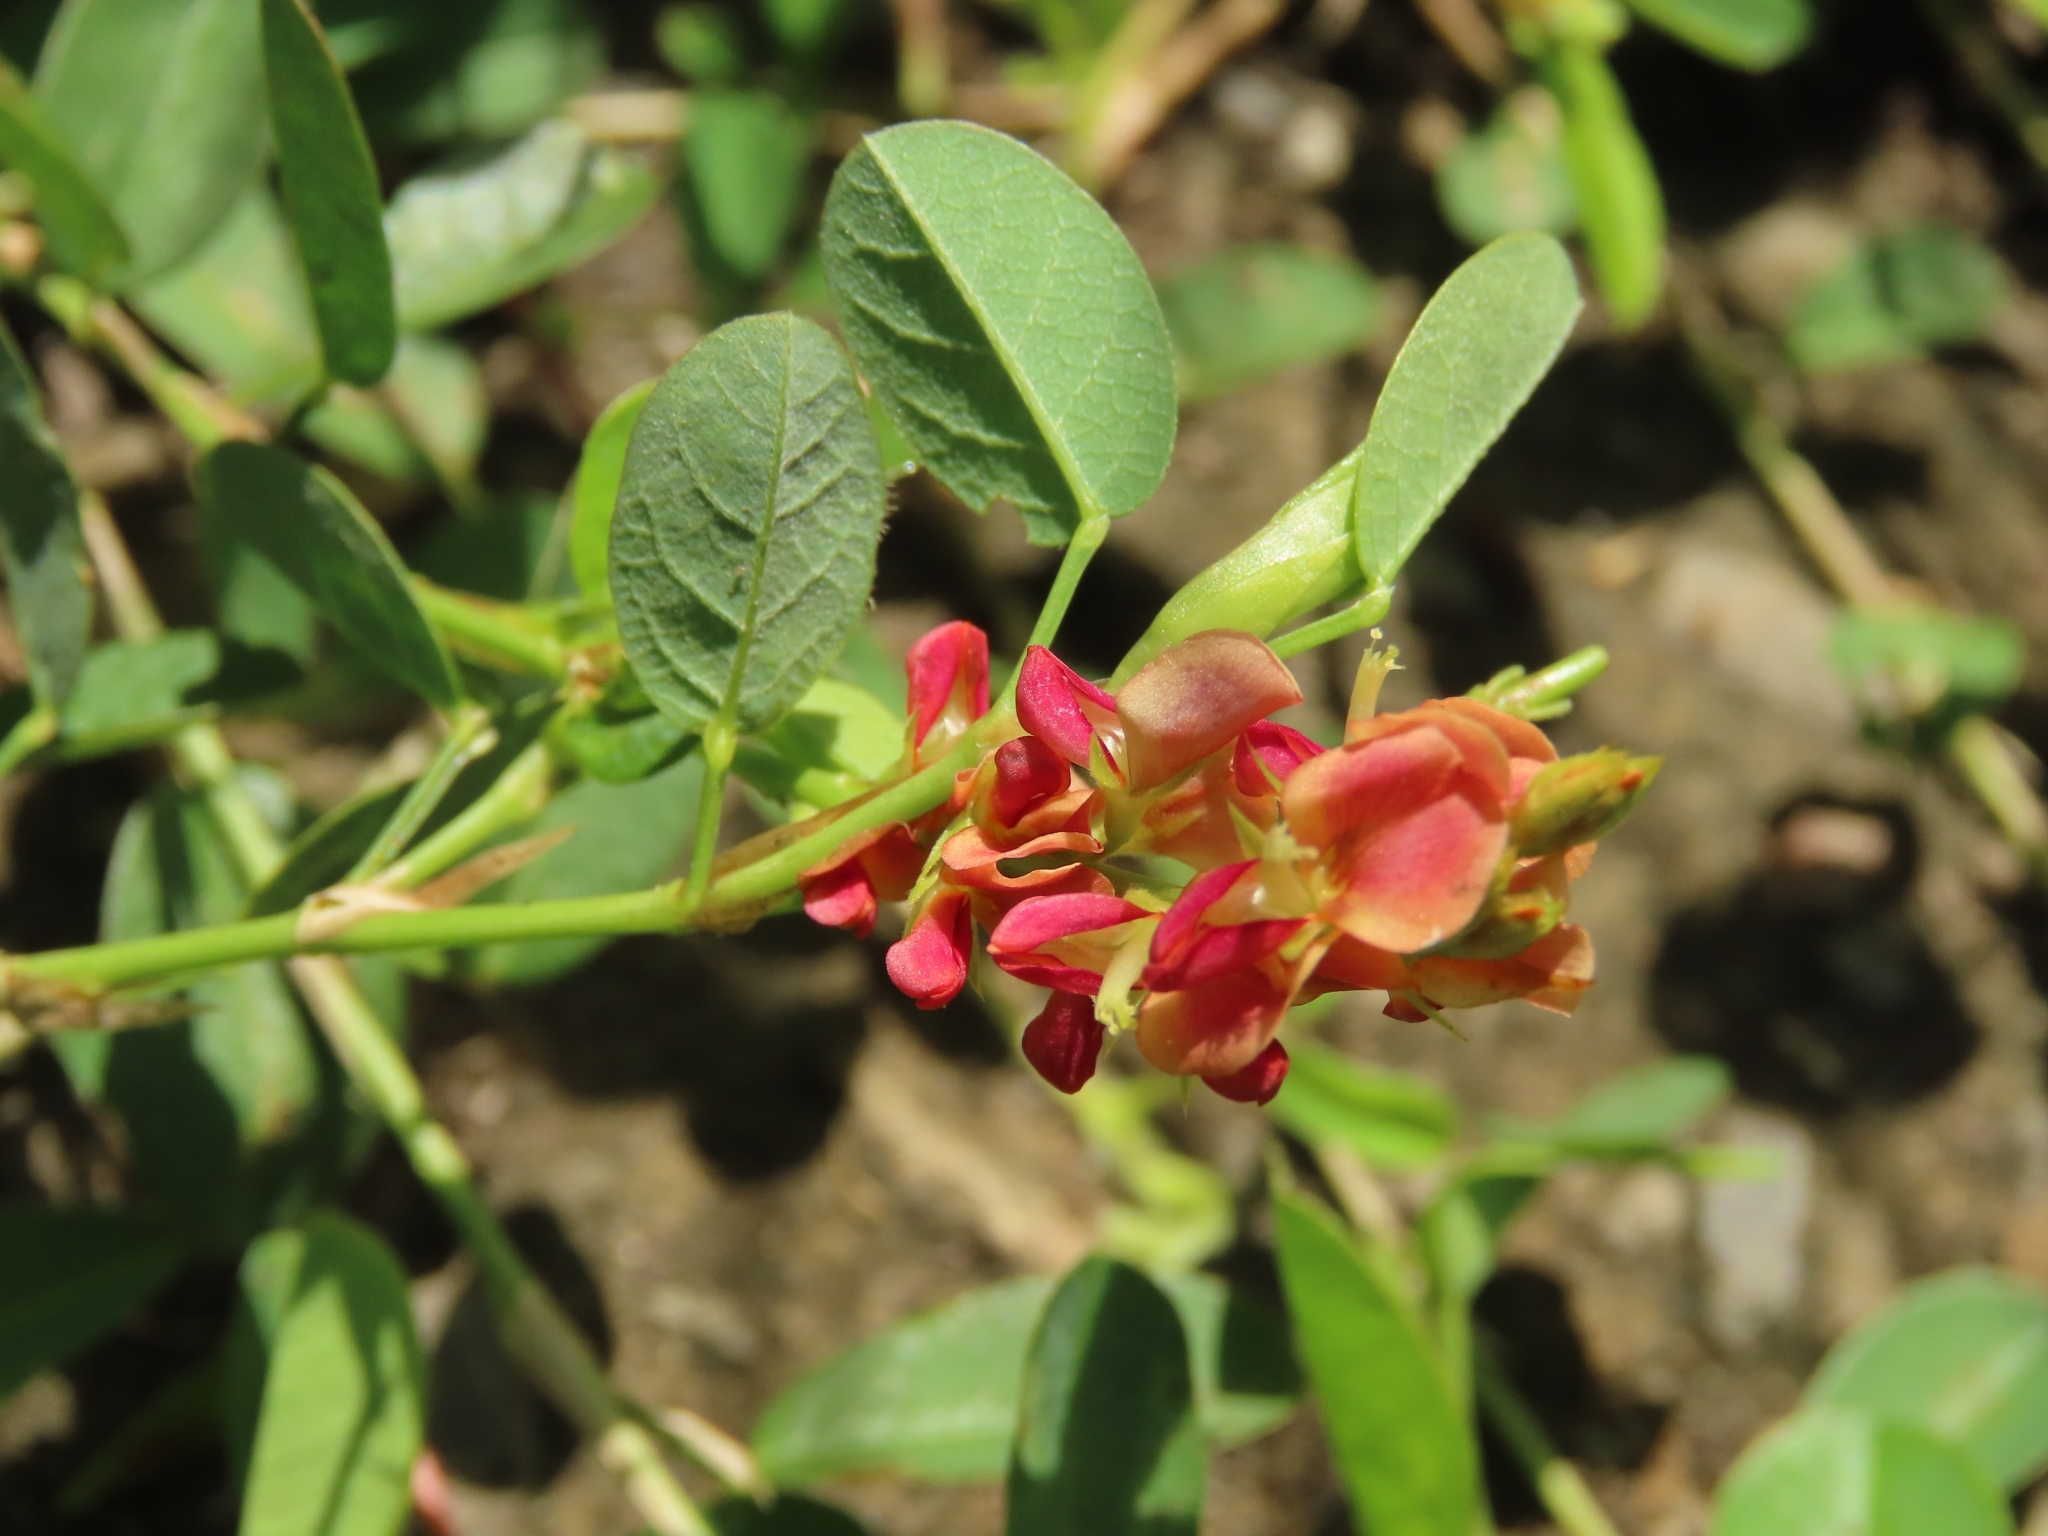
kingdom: Plantae
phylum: Tracheophyta
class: Magnoliopsida
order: Fabales
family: Fabaceae
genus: Alysicarpus
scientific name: Alysicarpus vaginalis
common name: White moneywort
